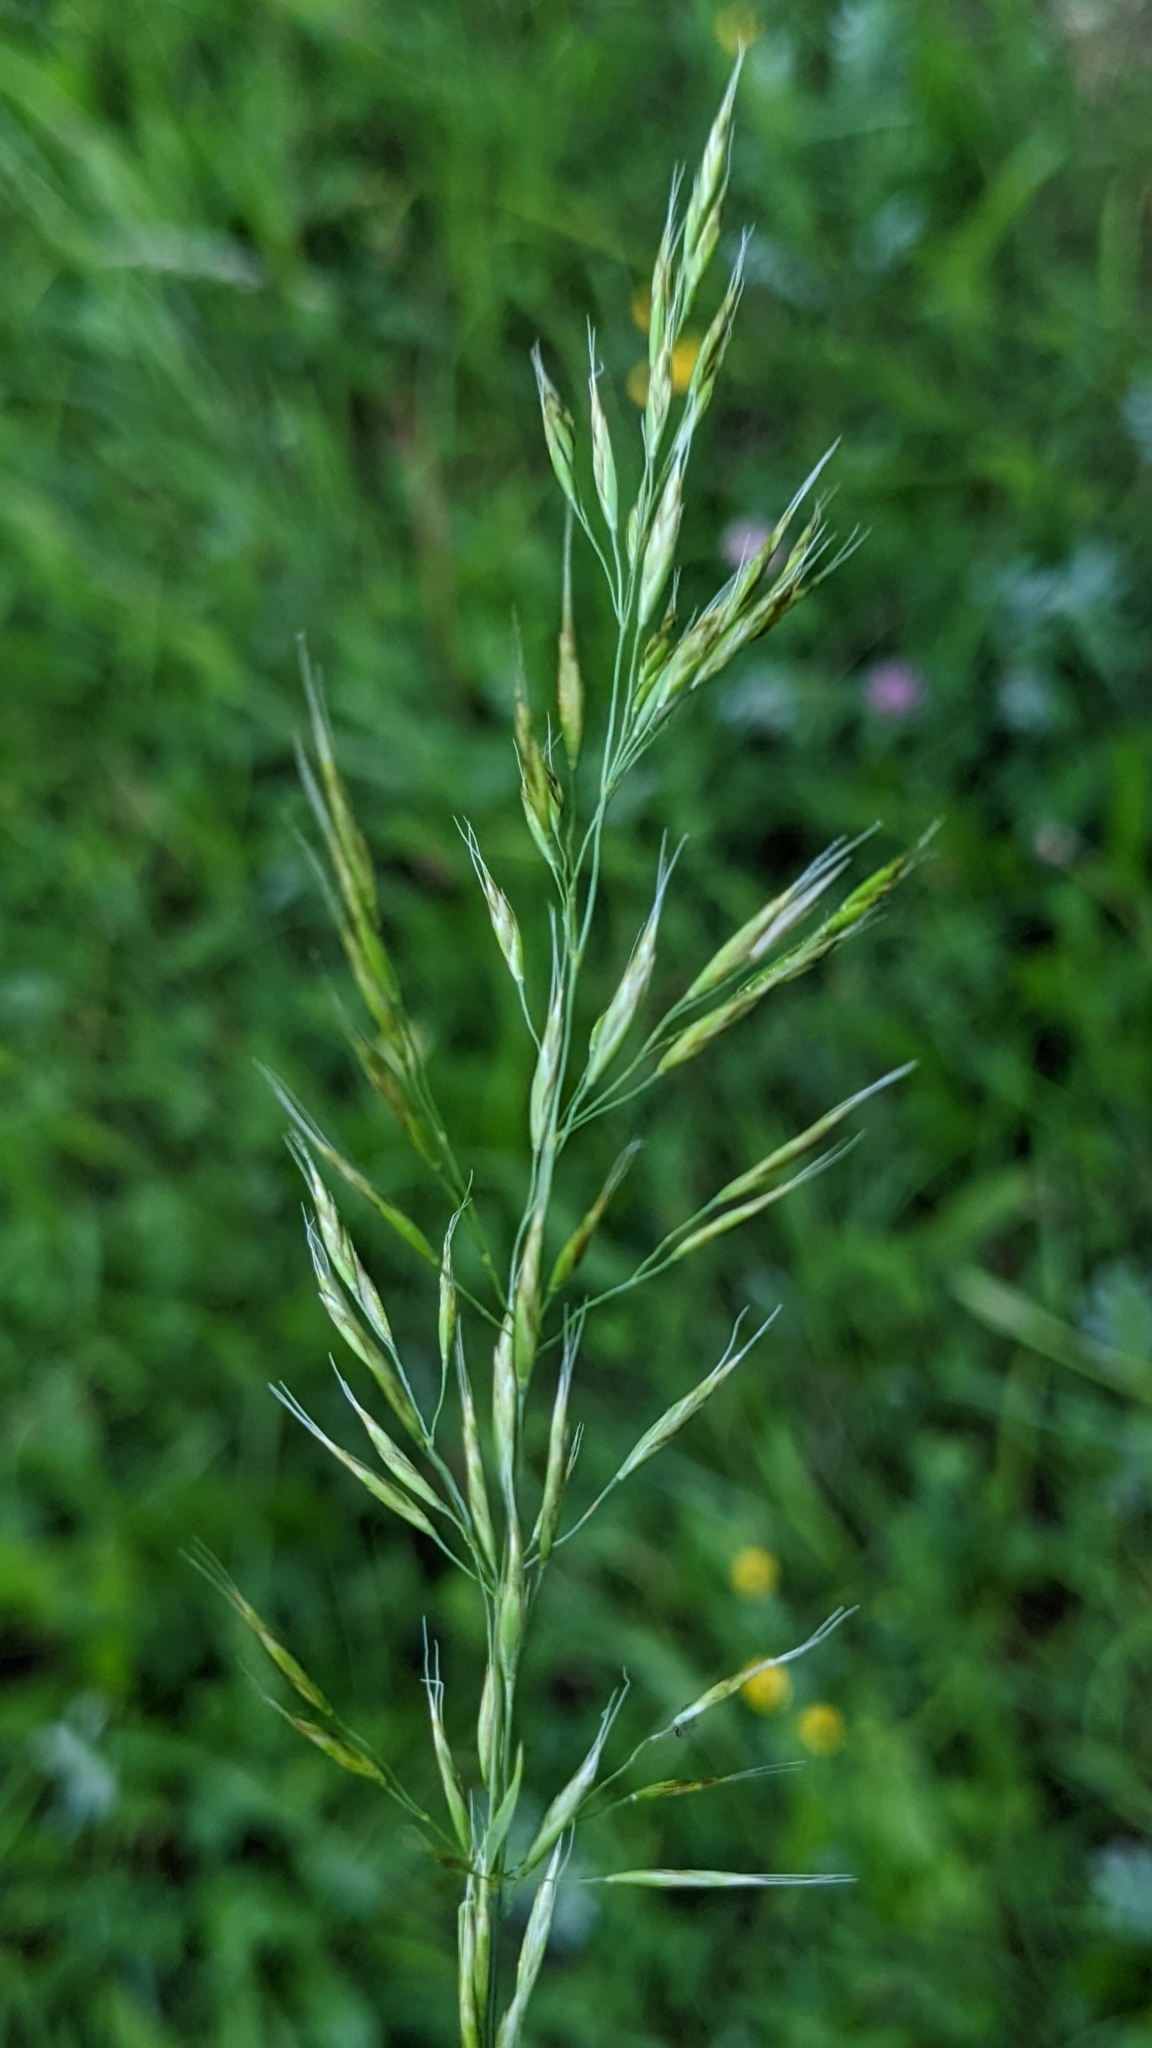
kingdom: Plantae
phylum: Tracheophyta
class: Liliopsida
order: Poales
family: Poaceae
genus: Trisetum
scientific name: Trisetum flavescens
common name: Yellow oat-grass
